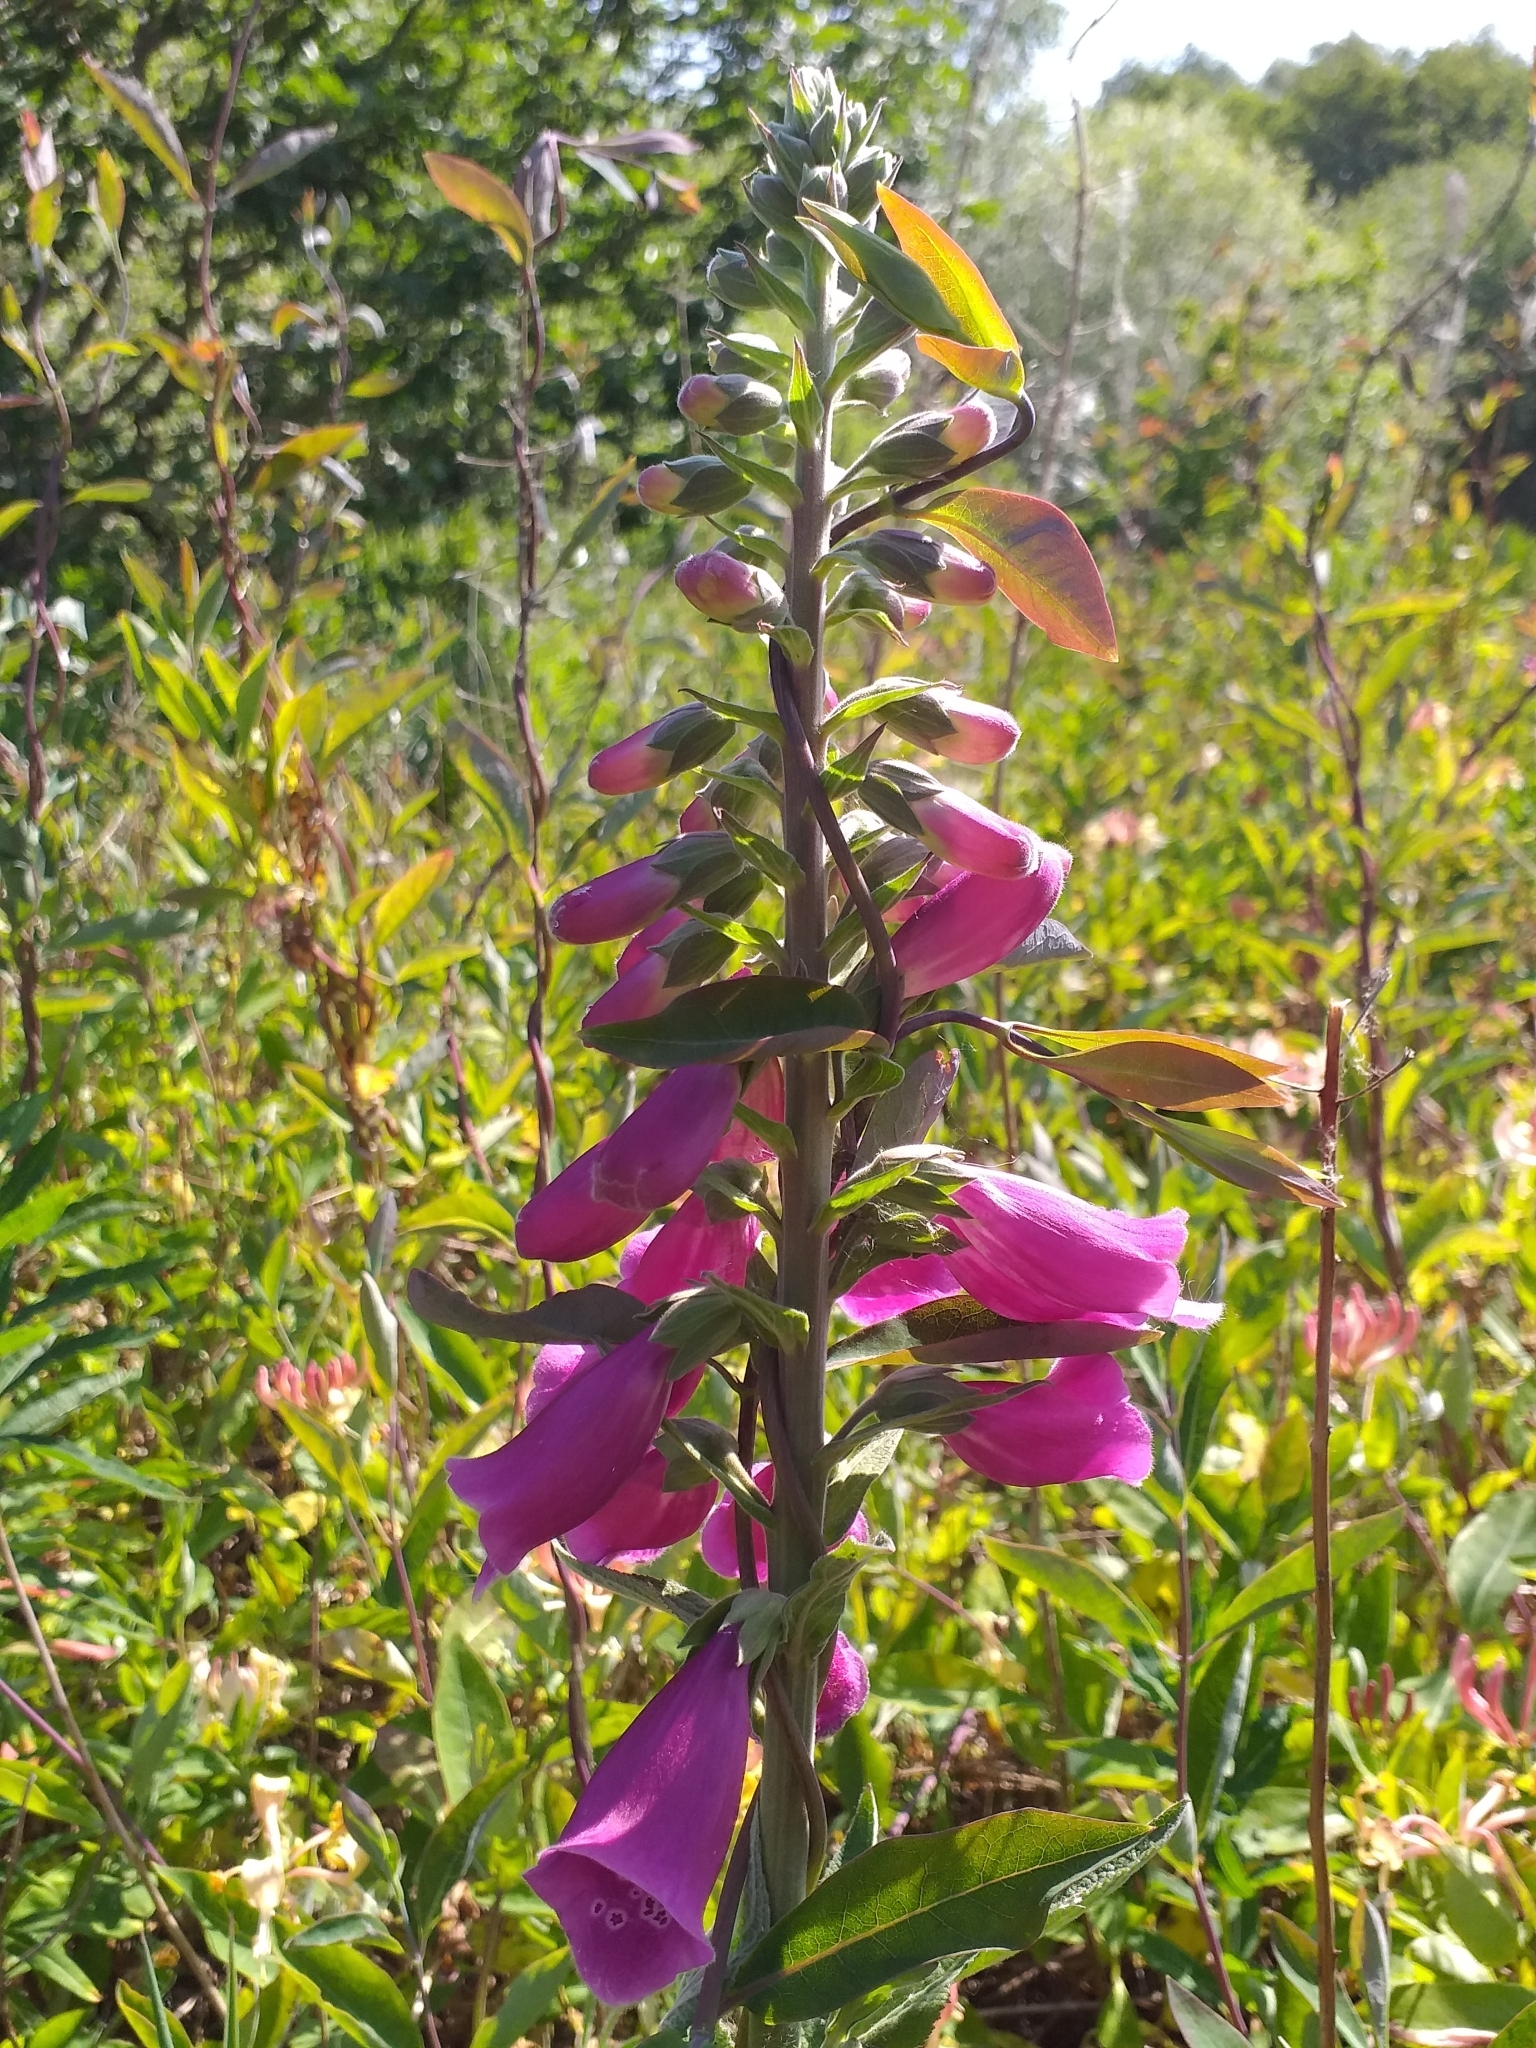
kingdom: Plantae
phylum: Tracheophyta
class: Magnoliopsida
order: Lamiales
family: Plantaginaceae
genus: Digitalis
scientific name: Digitalis purpurea
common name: Foxglove
